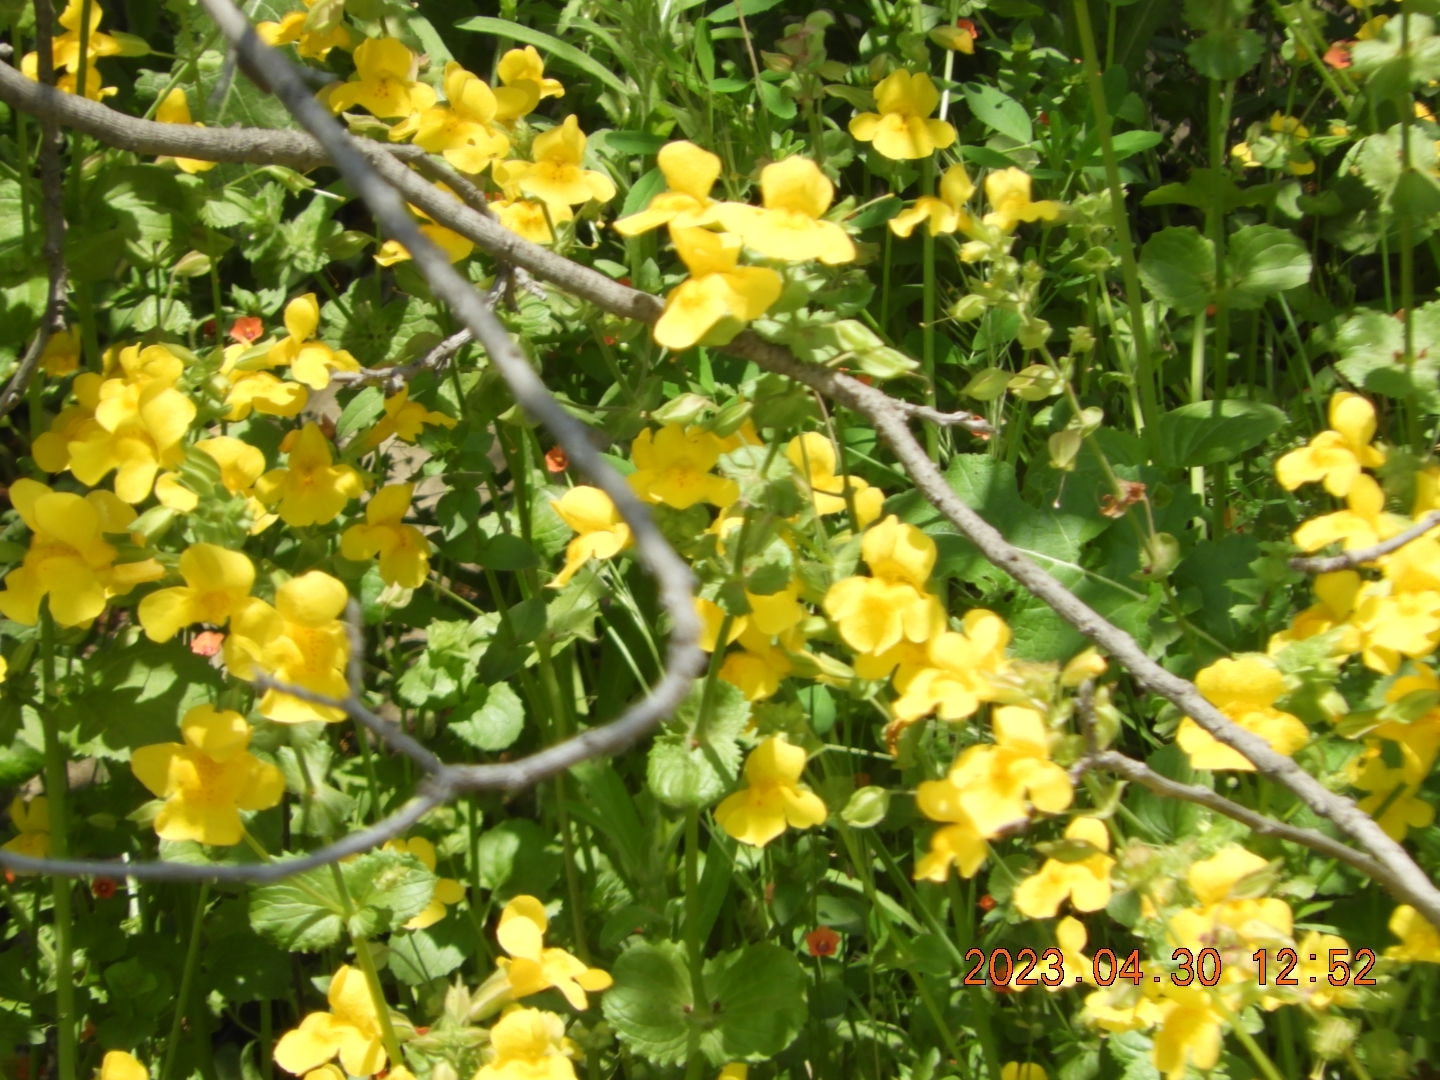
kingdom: Plantae
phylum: Tracheophyta
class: Magnoliopsida
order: Lamiales
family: Phrymaceae
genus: Erythranthe
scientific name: Erythranthe guttata
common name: Monkeyflower
